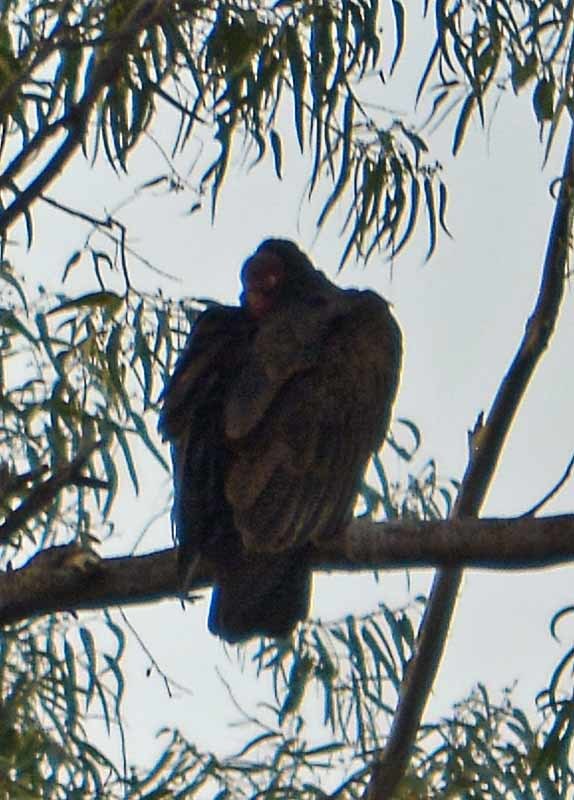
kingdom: Animalia
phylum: Chordata
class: Aves
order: Accipitriformes
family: Cathartidae
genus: Cathartes
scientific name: Cathartes aura
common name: Turkey vulture
